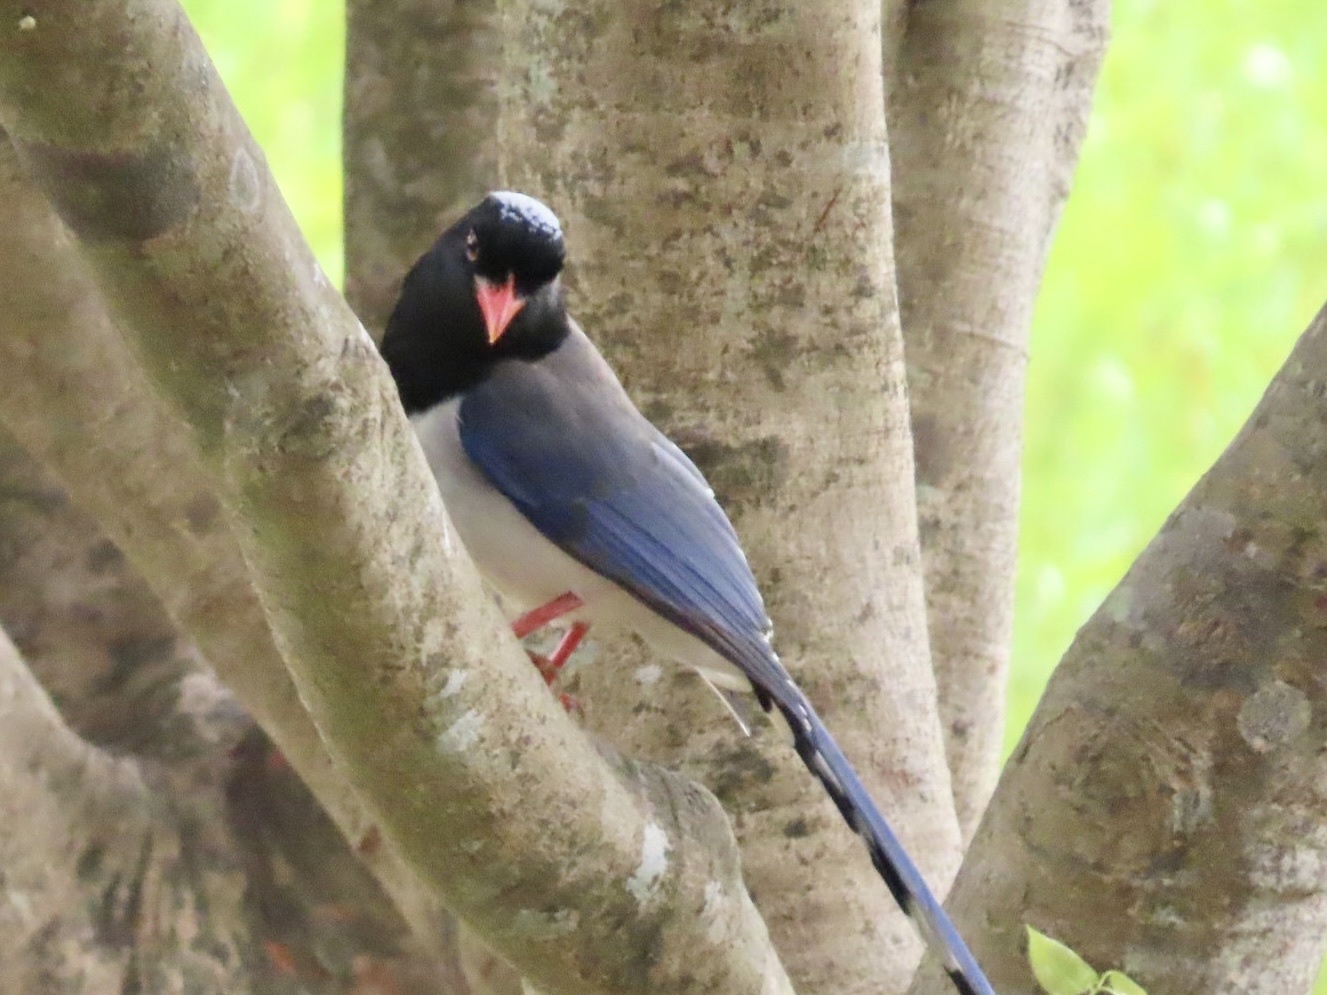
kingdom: Animalia
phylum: Chordata
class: Aves
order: Passeriformes
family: Corvidae
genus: Urocissa
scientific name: Urocissa erythroryncha
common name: Red-billed blue magpie
